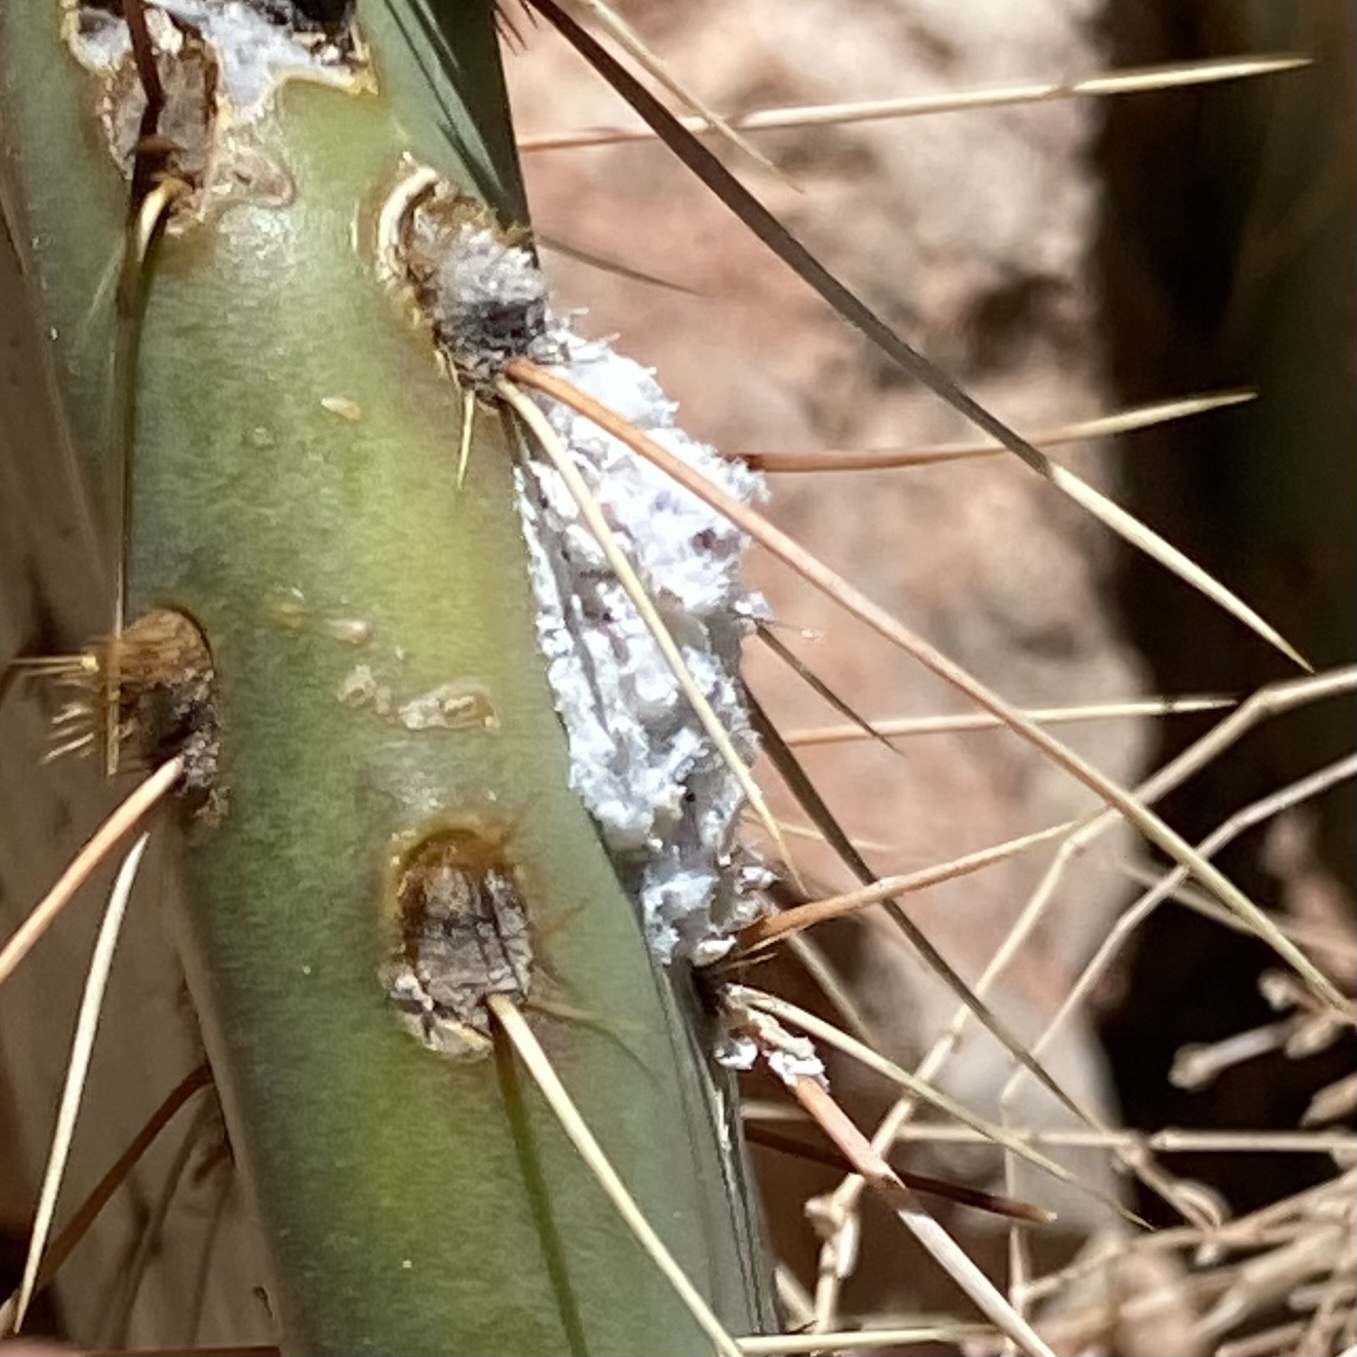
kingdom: Animalia
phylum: Arthropoda
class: Insecta
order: Hemiptera
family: Dactylopiidae
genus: Dactylopius
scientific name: Dactylopius
